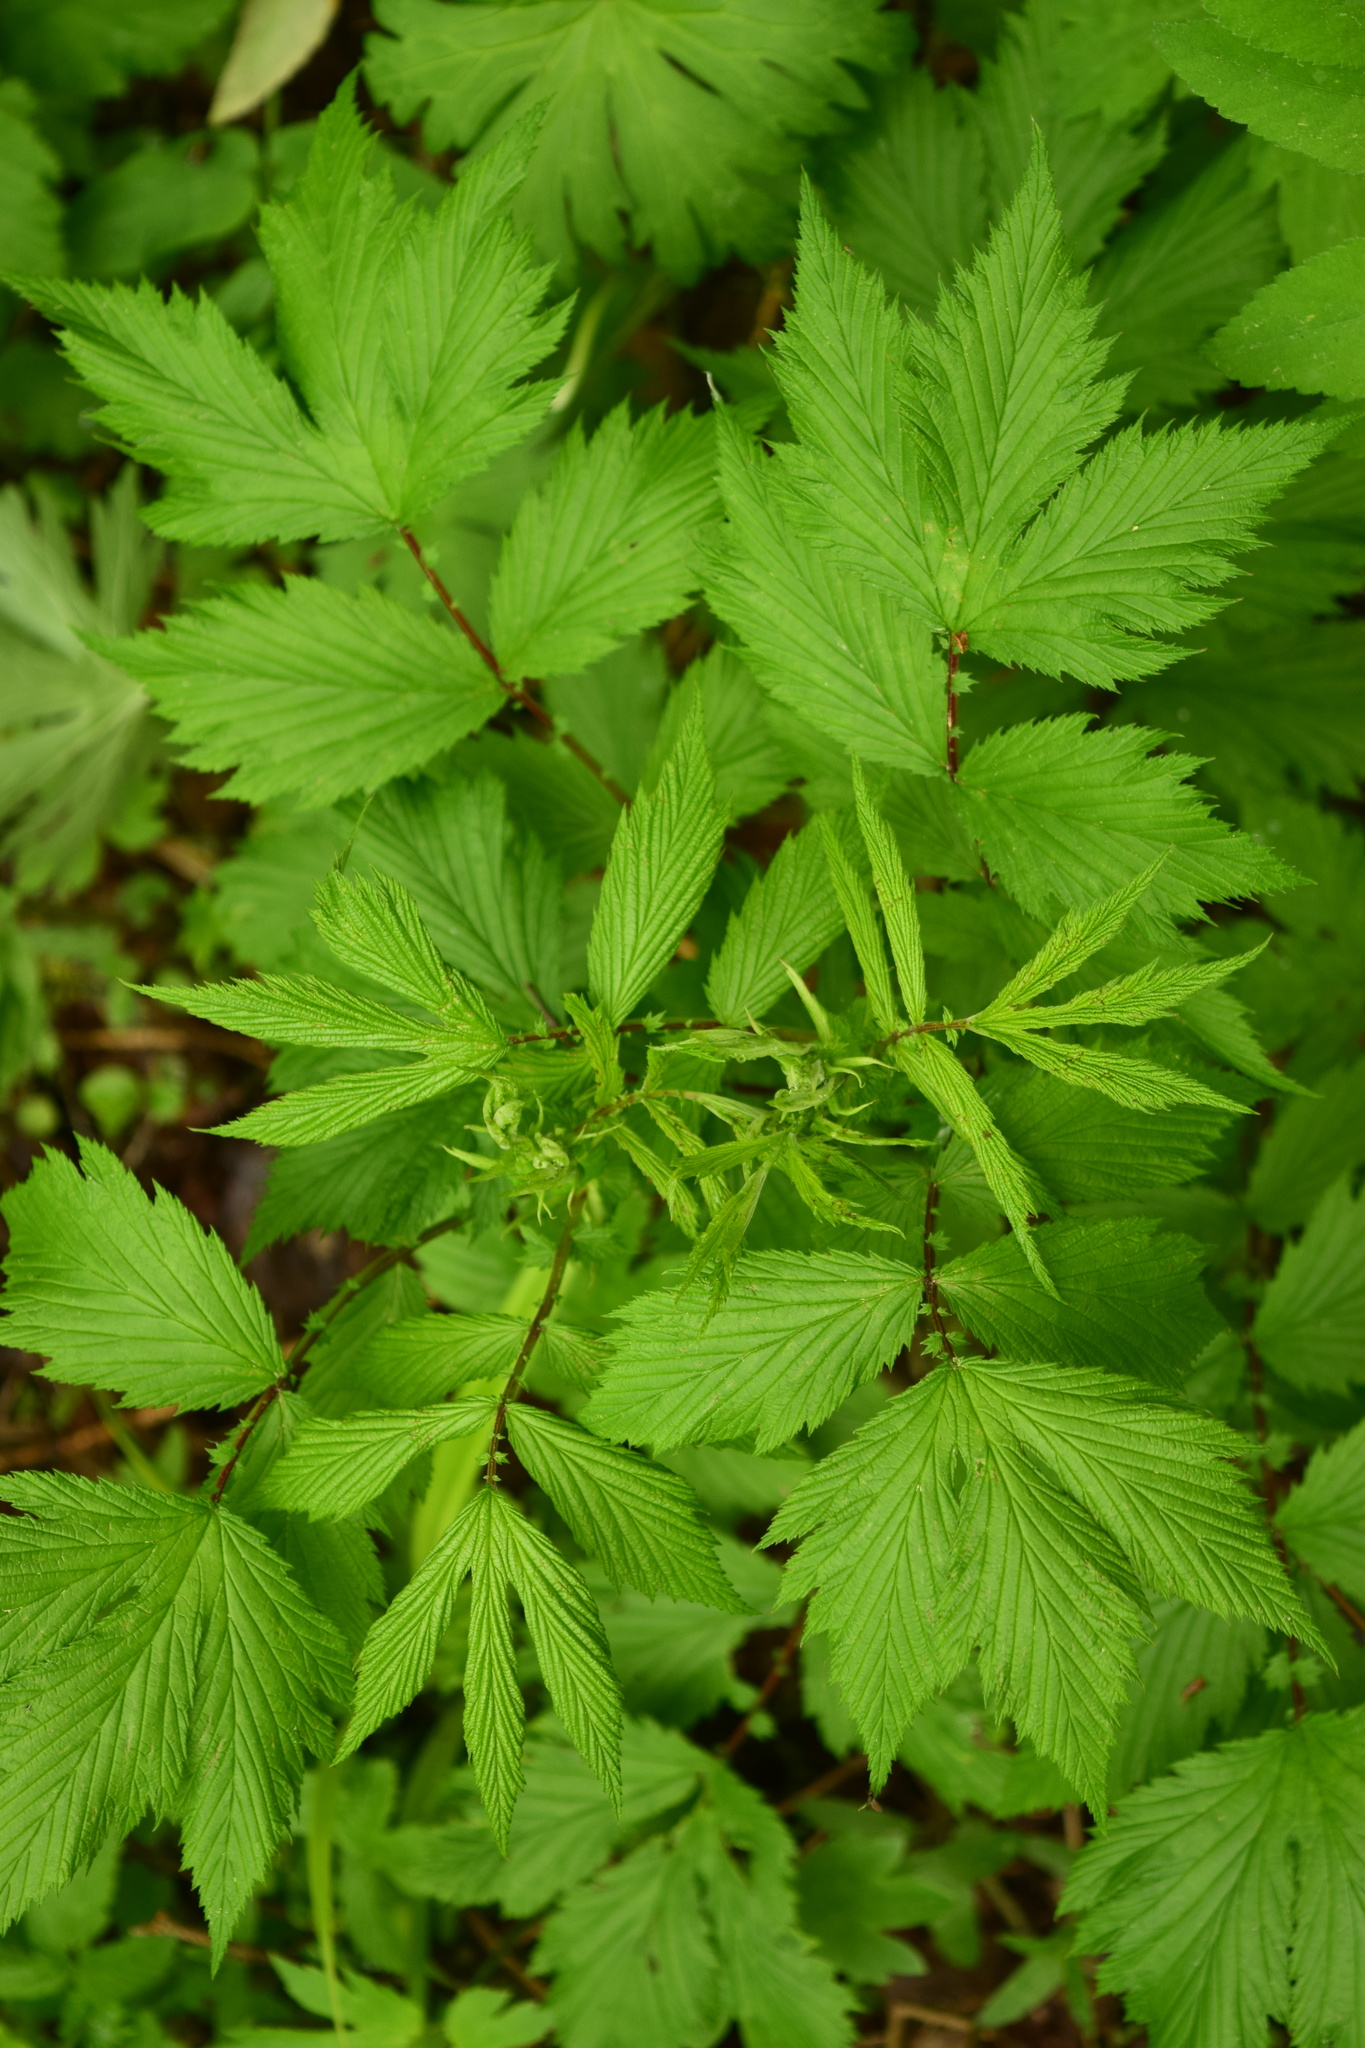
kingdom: Plantae
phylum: Tracheophyta
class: Magnoliopsida
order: Rosales
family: Rosaceae
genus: Filipendula
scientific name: Filipendula ulmaria
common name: Meadowsweet
